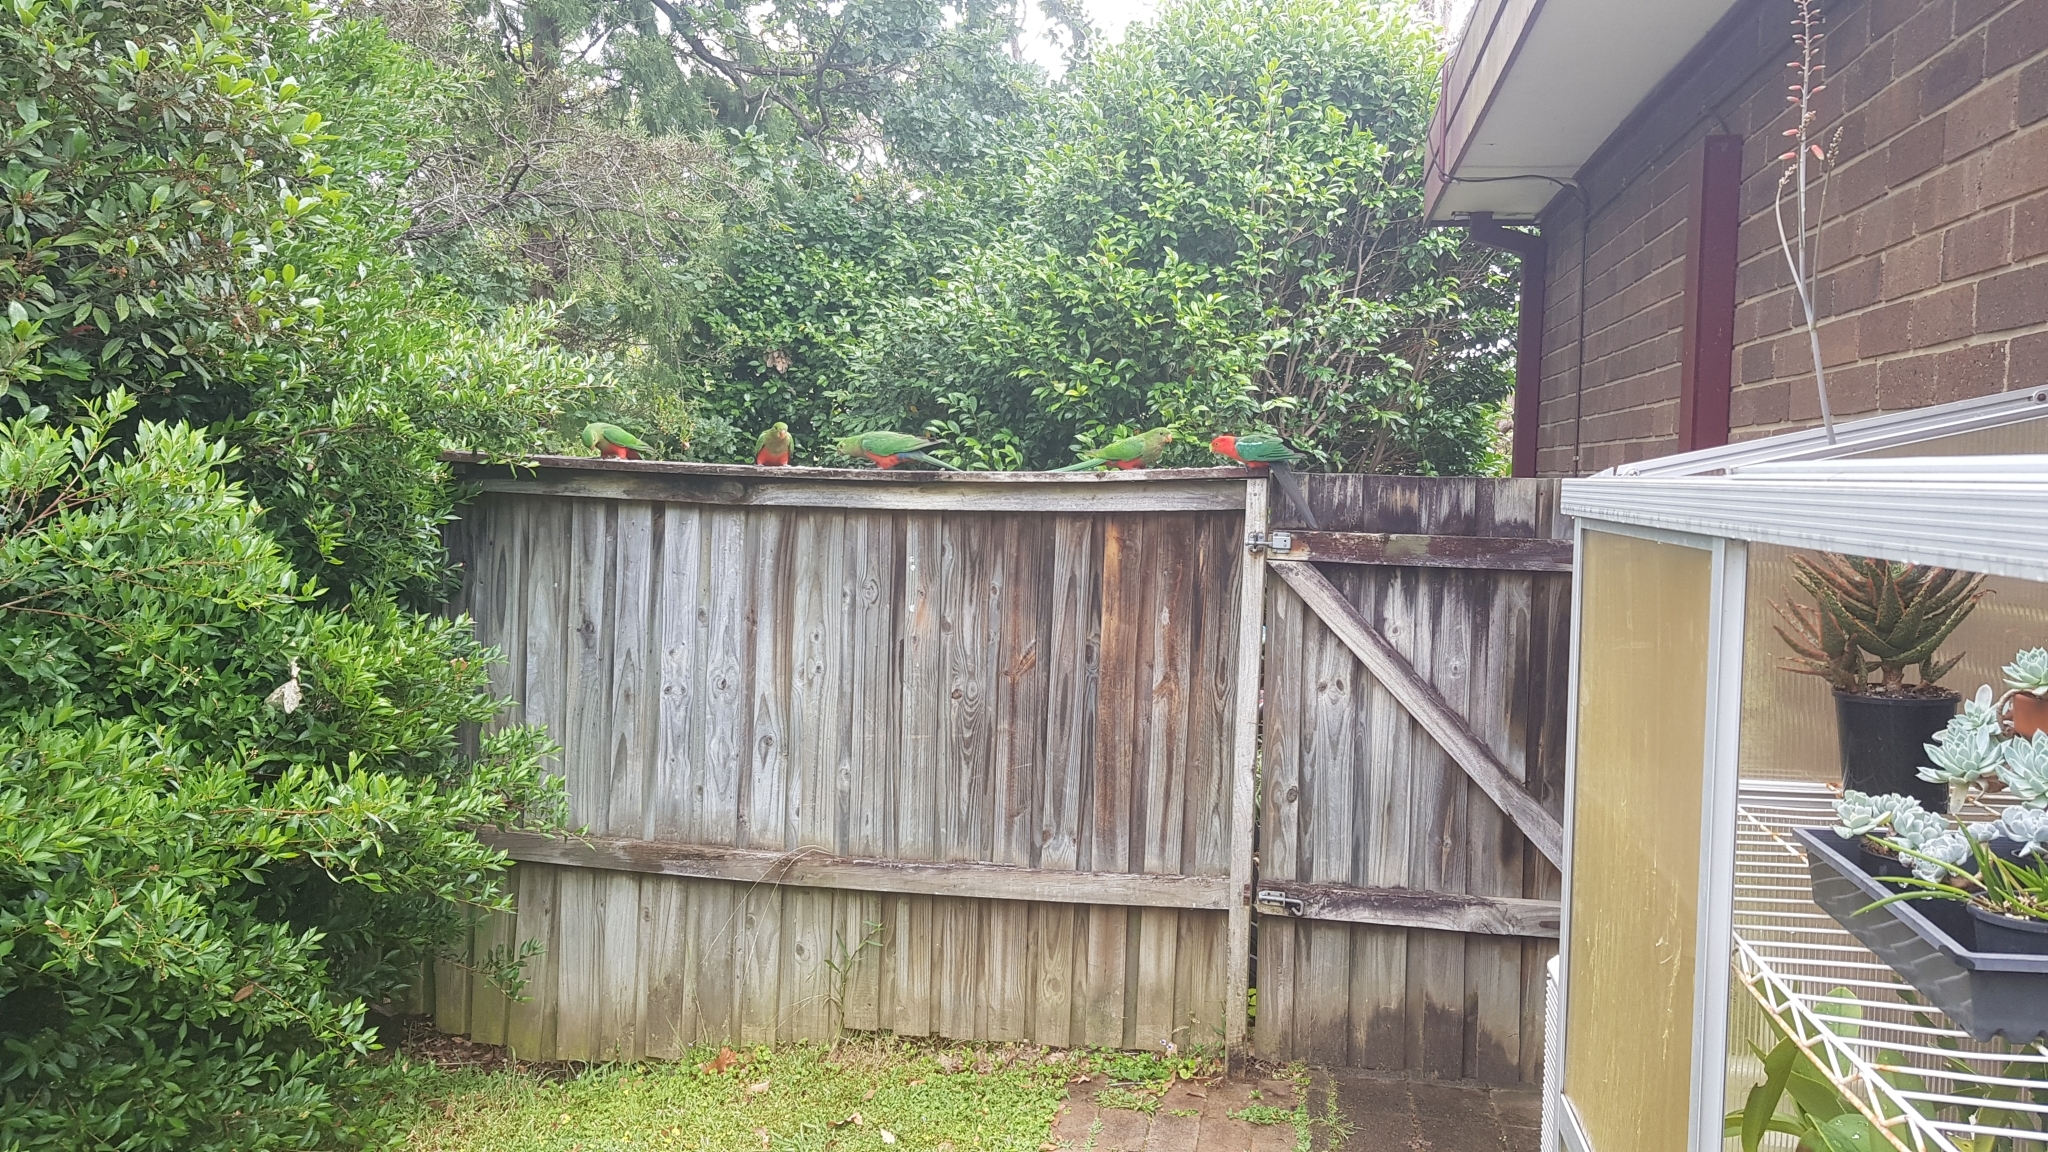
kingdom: Animalia
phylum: Chordata
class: Aves
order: Psittaciformes
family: Psittacidae
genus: Alisterus
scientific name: Alisterus scapularis
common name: Australian king parrot
